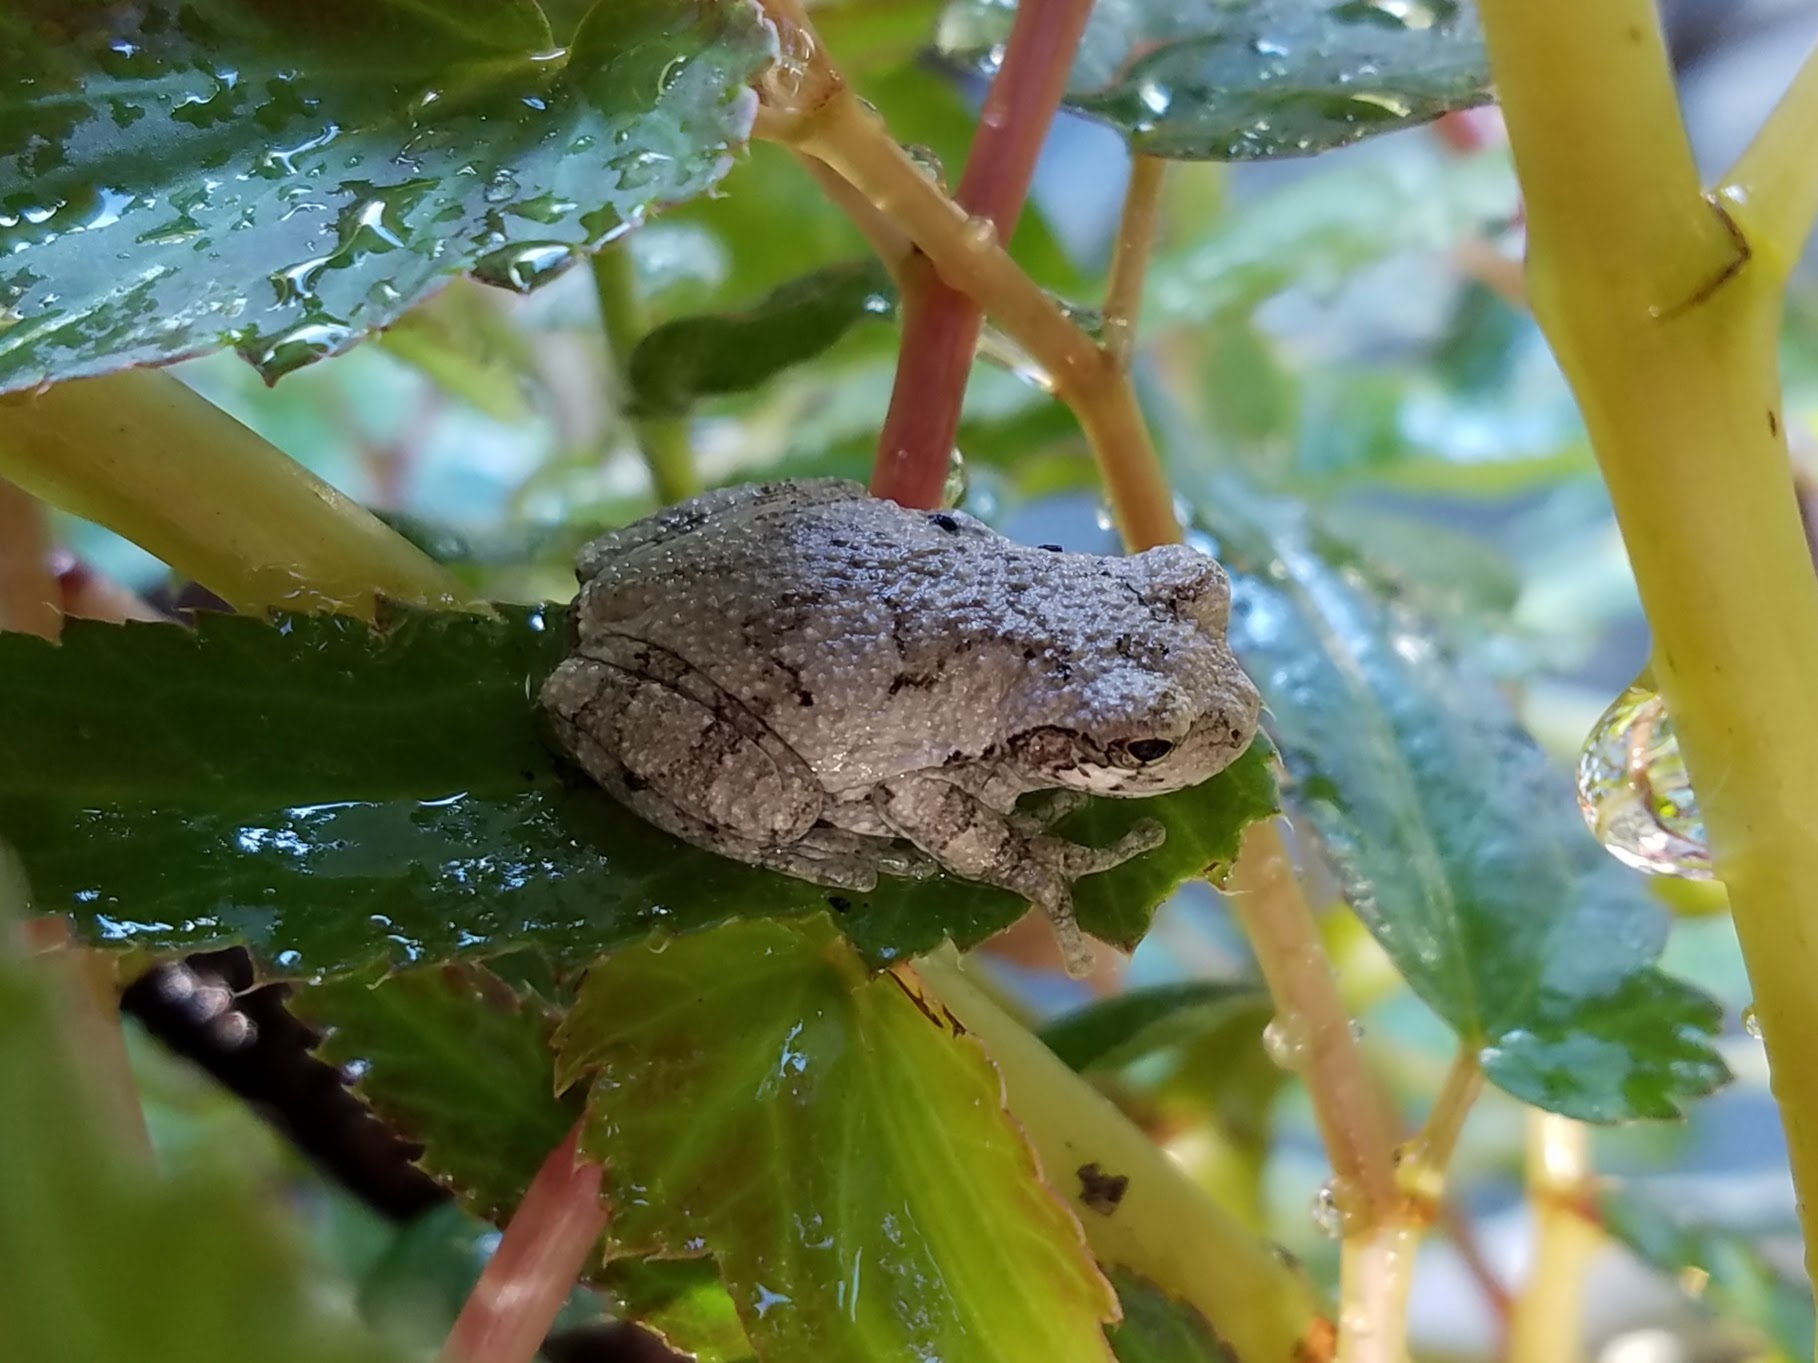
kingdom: Animalia
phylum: Chordata
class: Amphibia
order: Anura
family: Hylidae
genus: Dryophytes
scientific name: Dryophytes chrysoscelis
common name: Cope's gray treefrog
